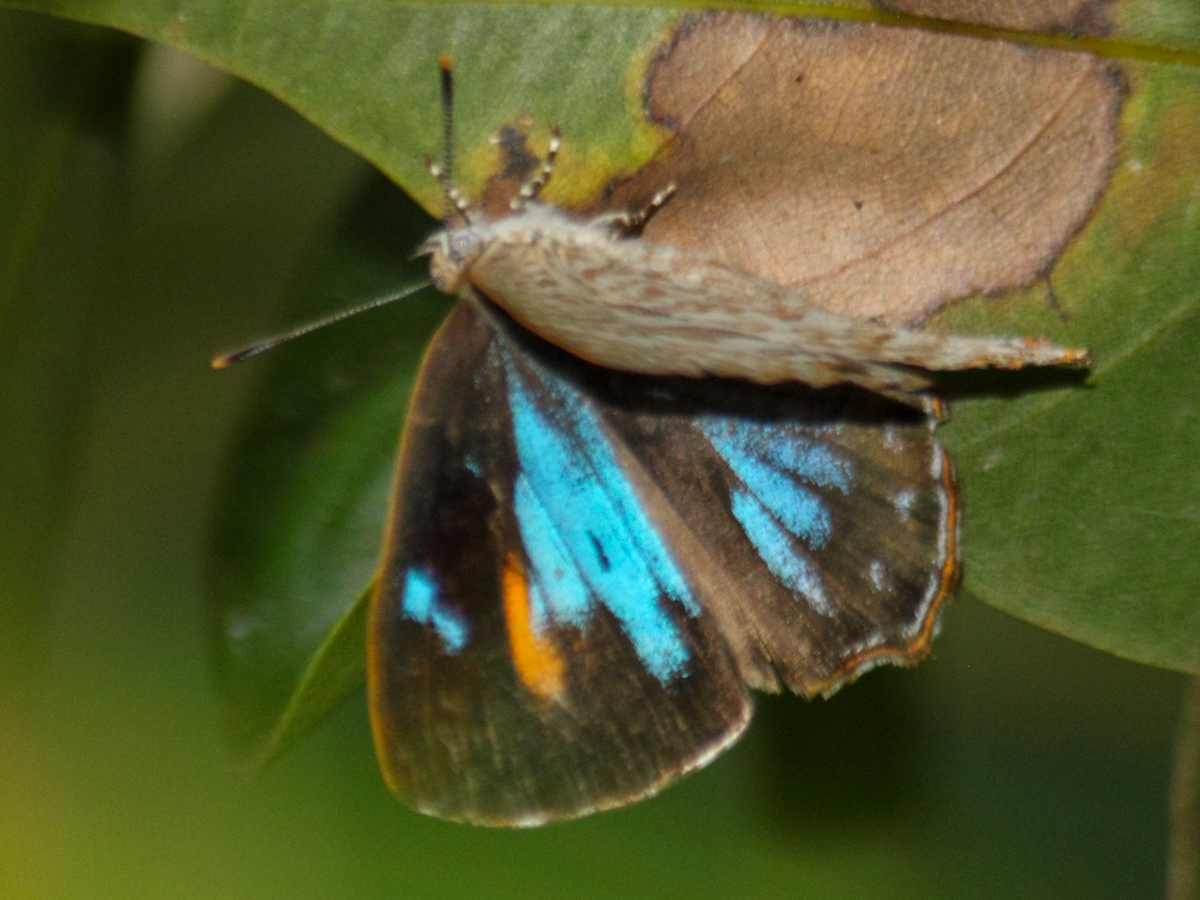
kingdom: Animalia
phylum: Arthropoda
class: Insecta
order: Lepidoptera
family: Lycaenidae
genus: Poritia
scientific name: Poritia hewitsoni
